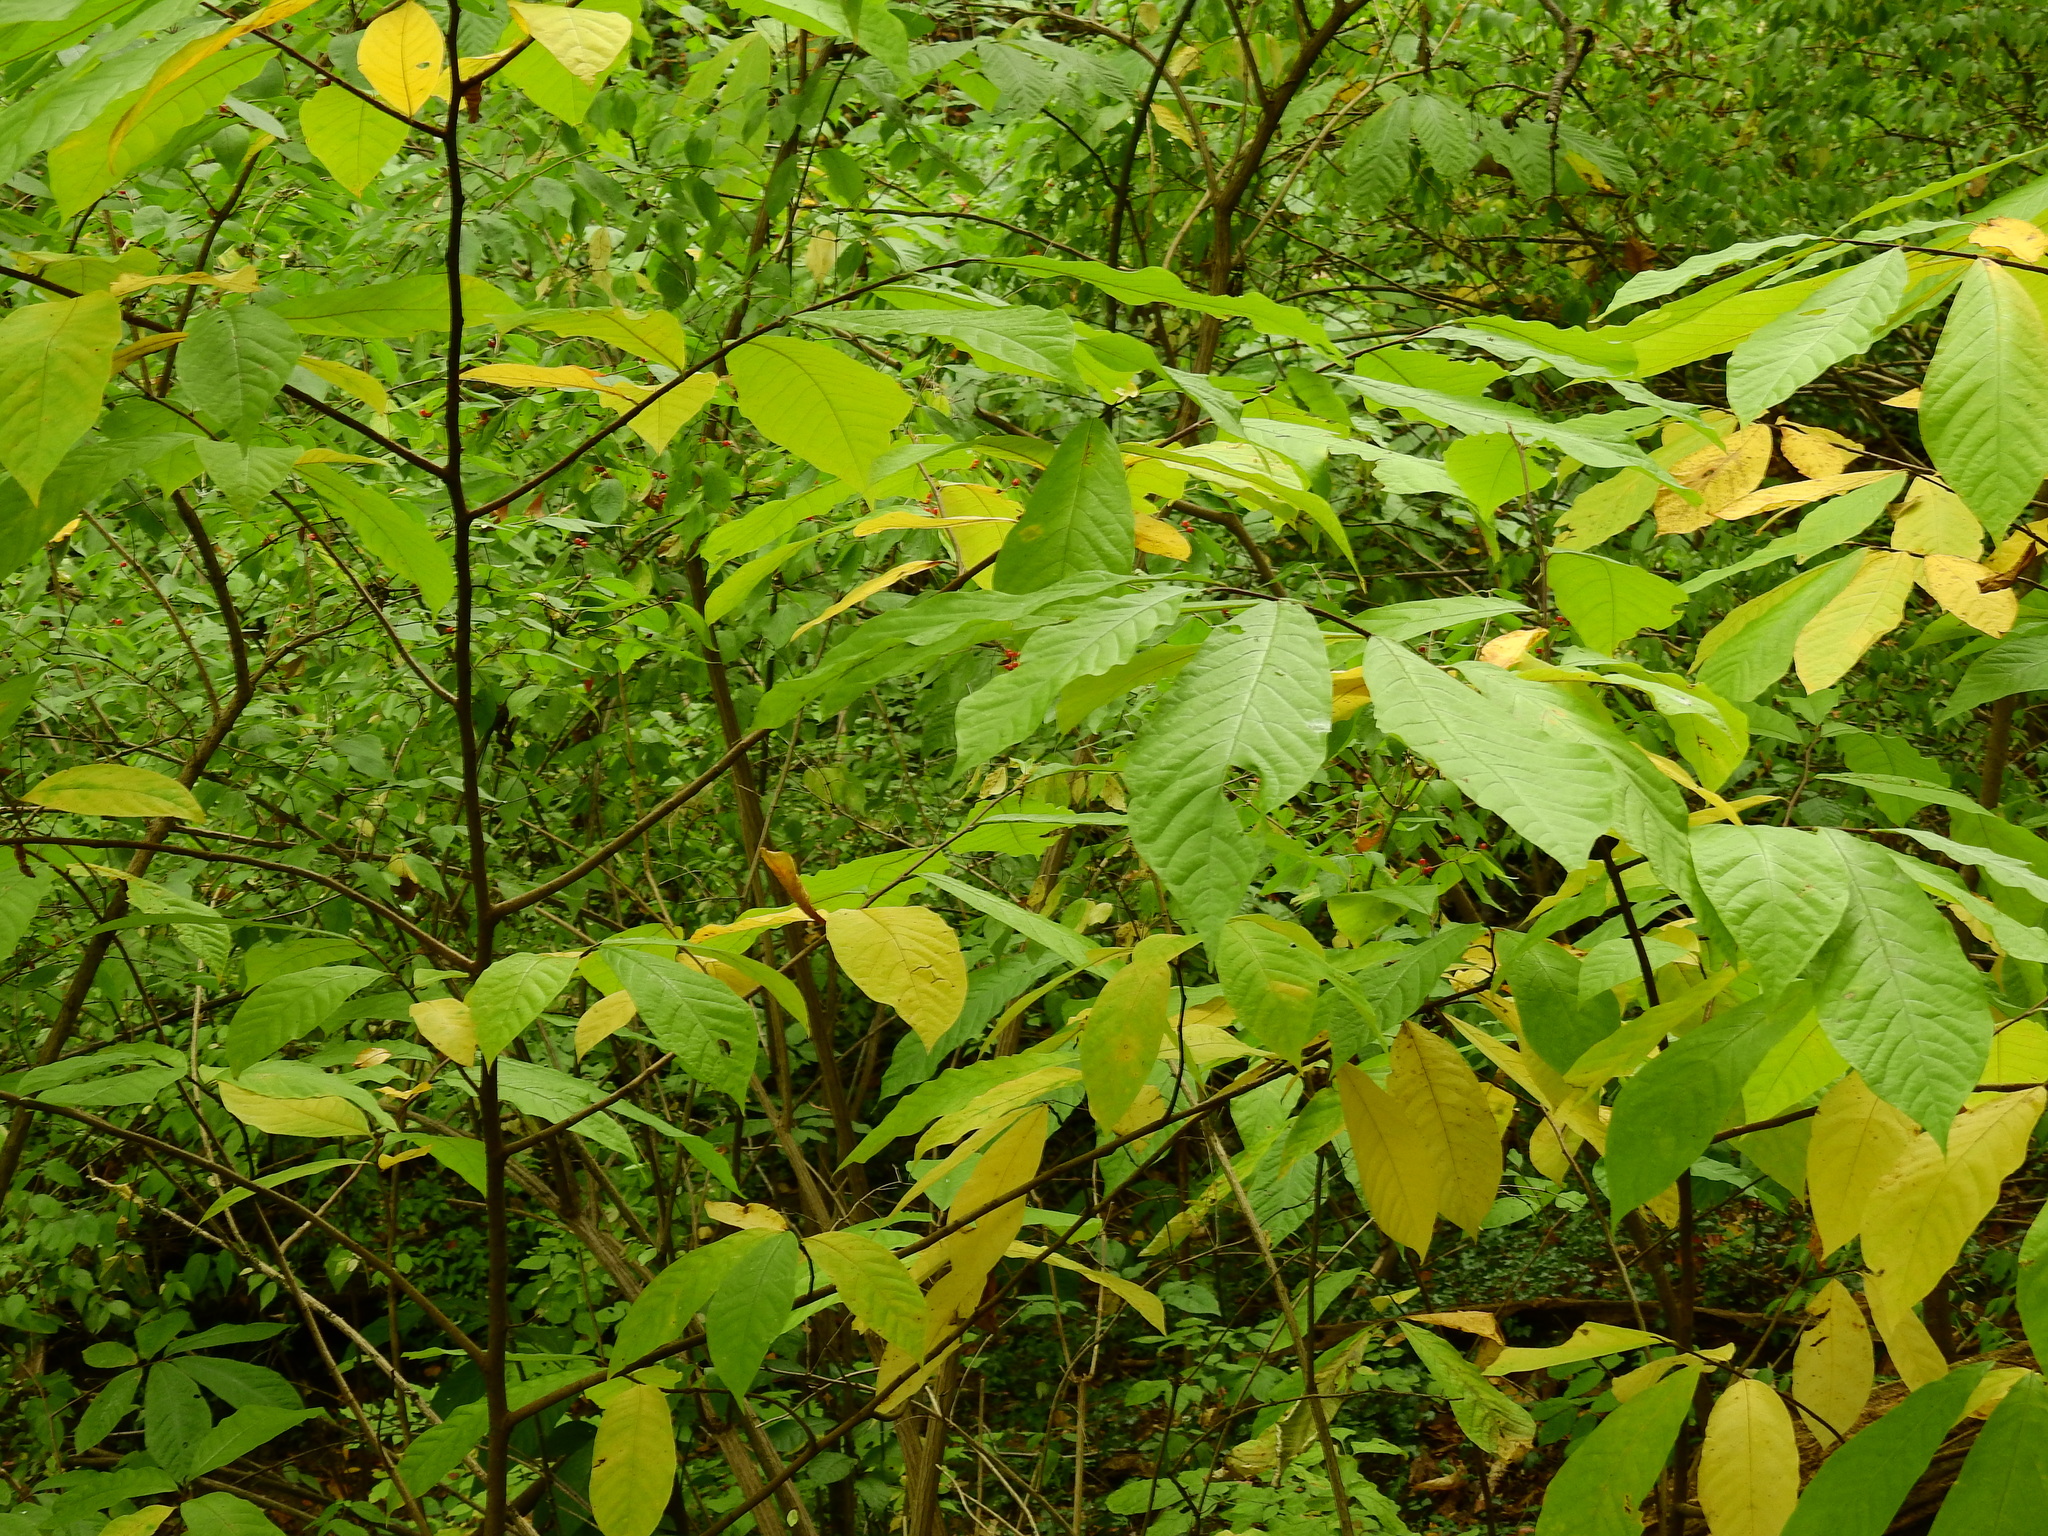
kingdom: Plantae
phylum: Tracheophyta
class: Magnoliopsida
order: Magnoliales
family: Annonaceae
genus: Asimina
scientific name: Asimina triloba
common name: Dog-banana
